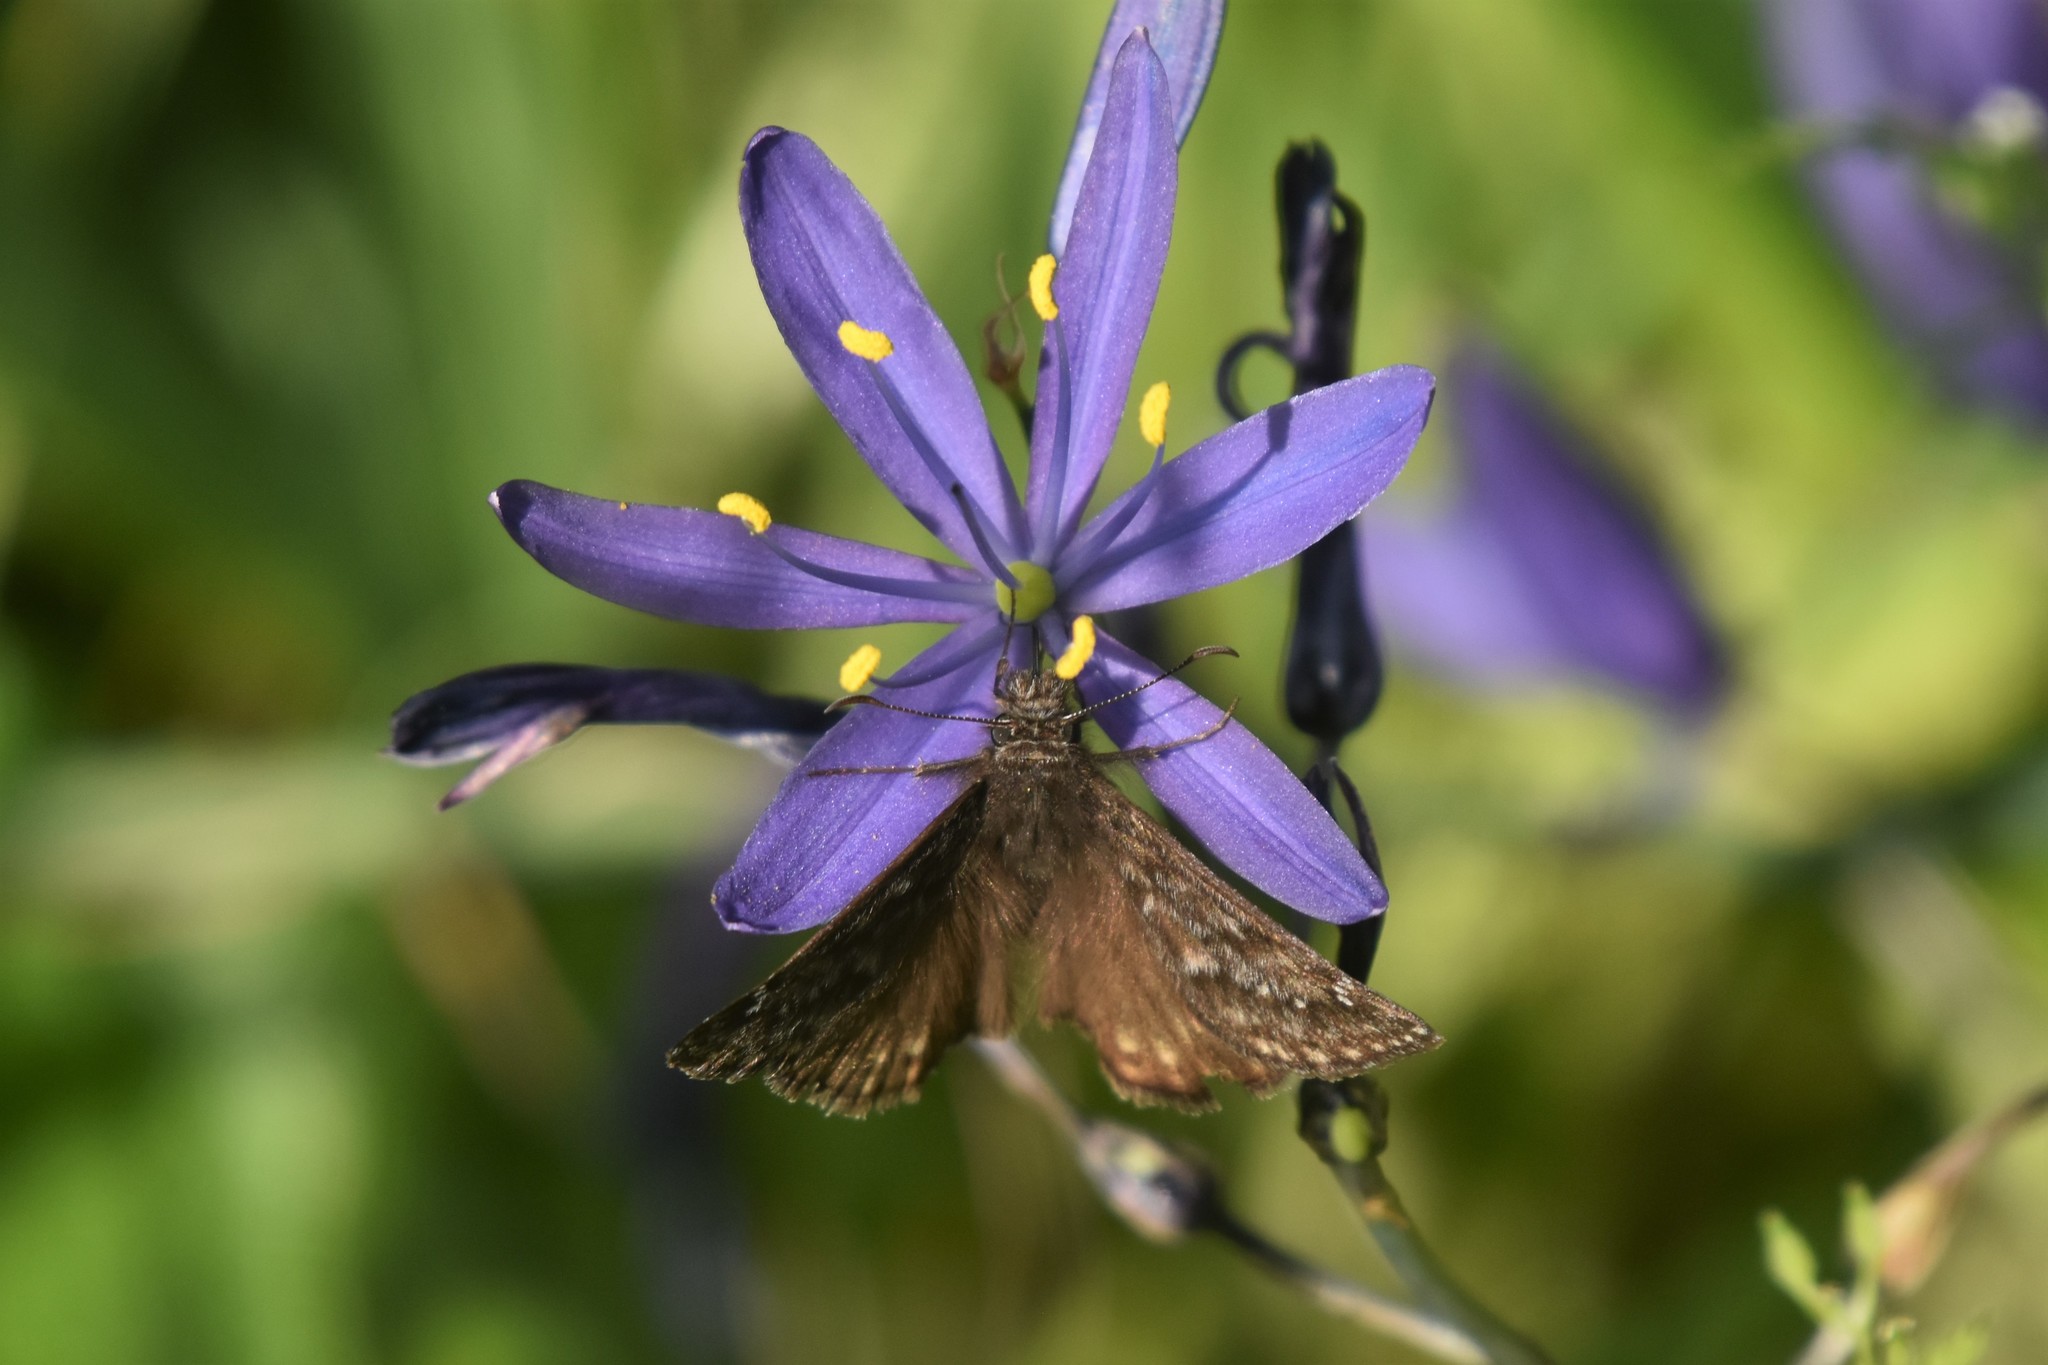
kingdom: Animalia
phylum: Arthropoda
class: Insecta
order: Lepidoptera
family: Hesperiidae
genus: Erynnis
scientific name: Erynnis propertius
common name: Propertius duskywing
